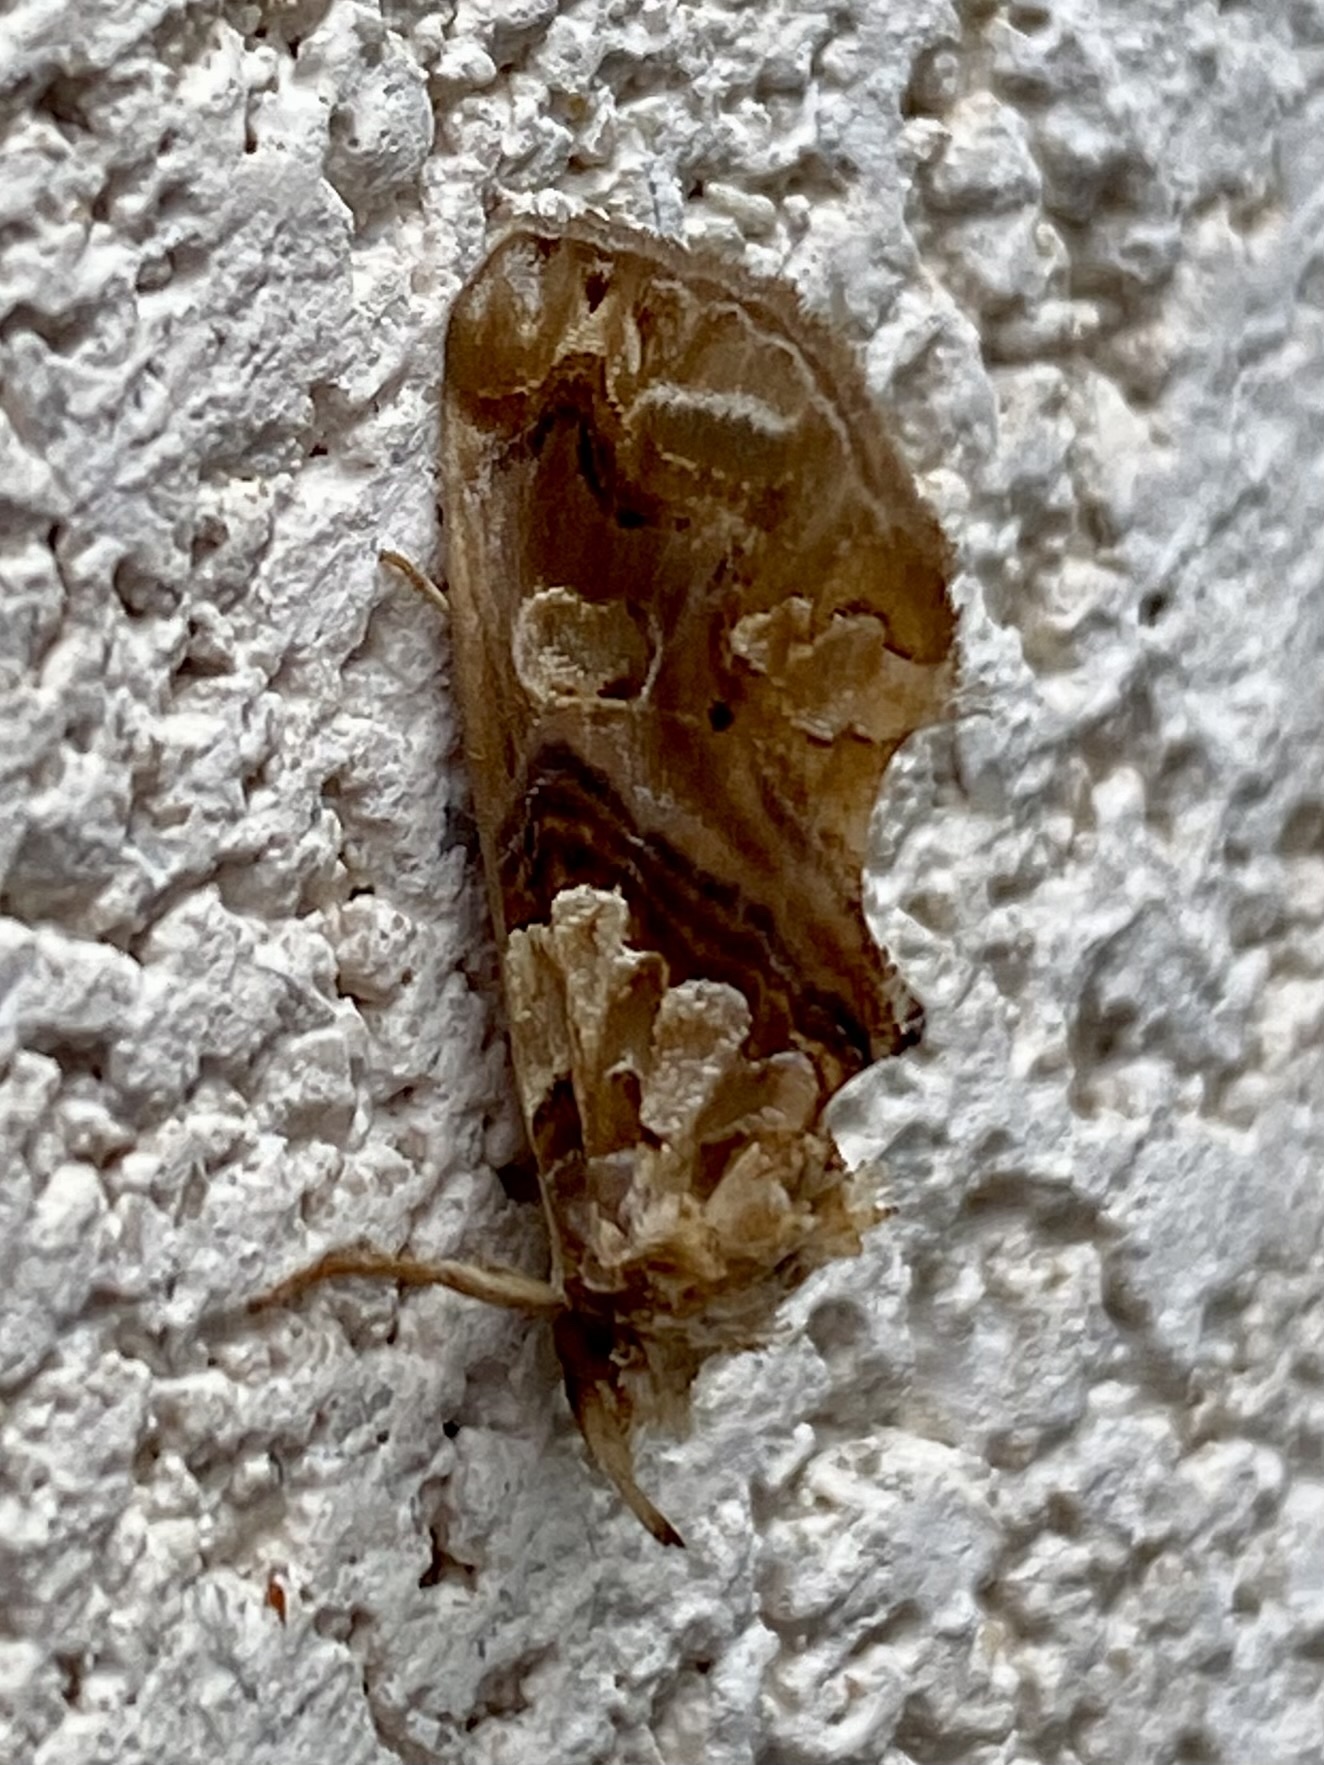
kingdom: Animalia
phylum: Arthropoda
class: Insecta
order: Lepidoptera
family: Erebidae
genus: Plusiodonta
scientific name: Plusiodonta
